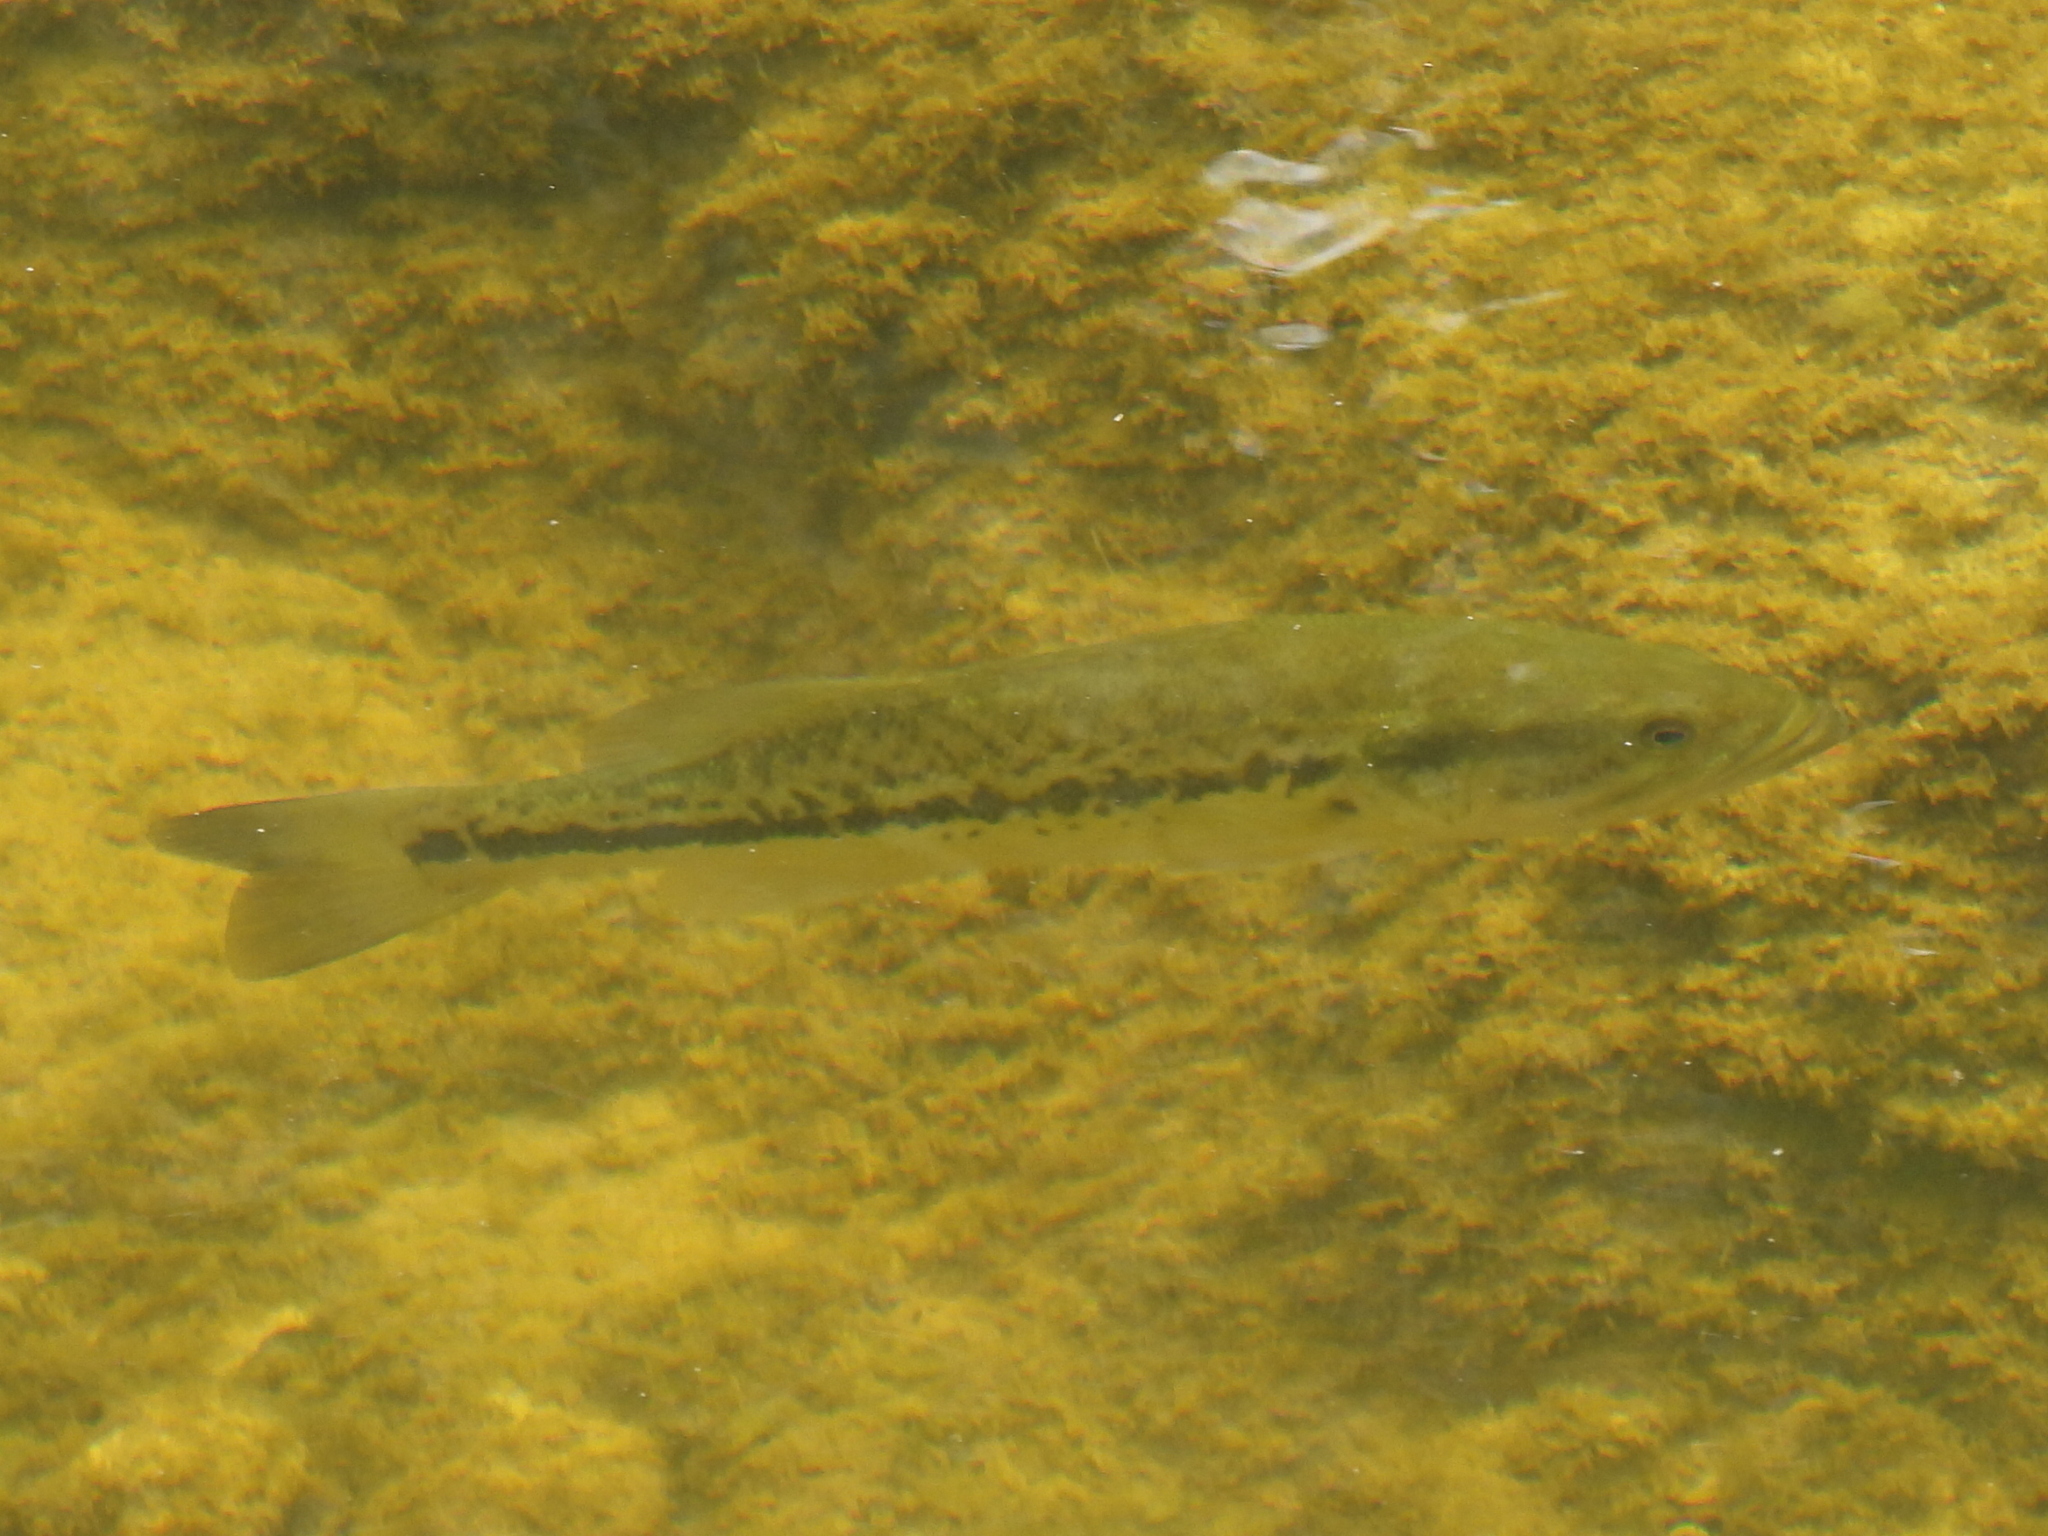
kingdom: Animalia
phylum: Chordata
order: Perciformes
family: Centrarchidae
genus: Micropterus
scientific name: Micropterus
